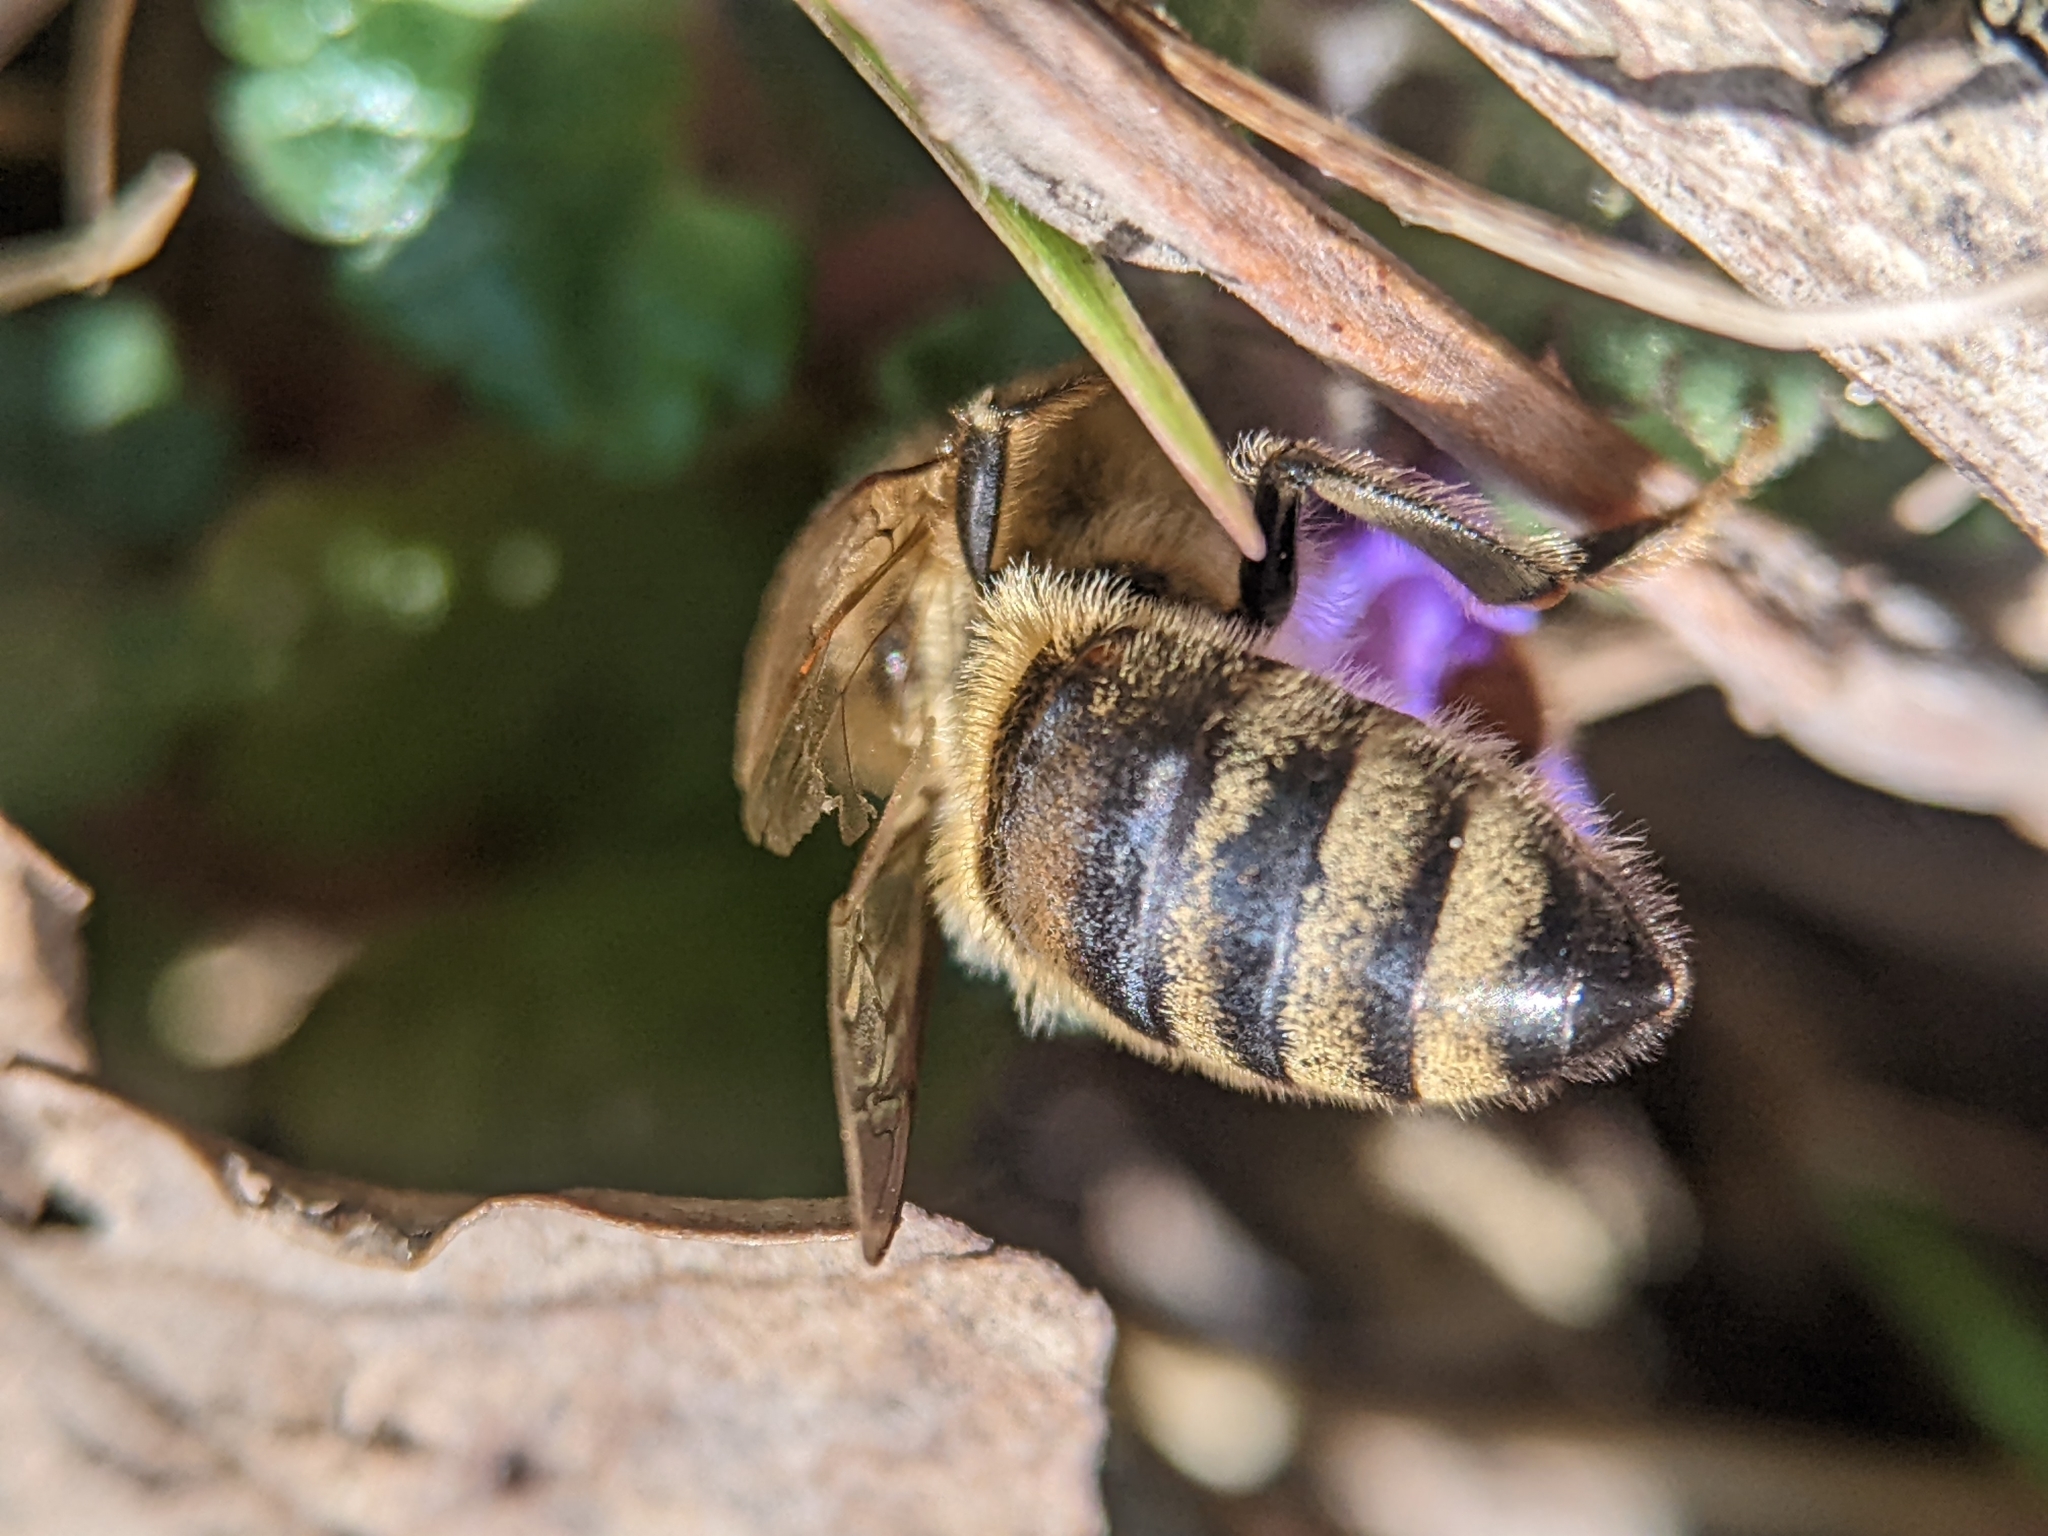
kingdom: Animalia
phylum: Arthropoda
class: Insecta
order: Hymenoptera
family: Apidae
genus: Apis
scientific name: Apis mellifera
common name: Honey bee
